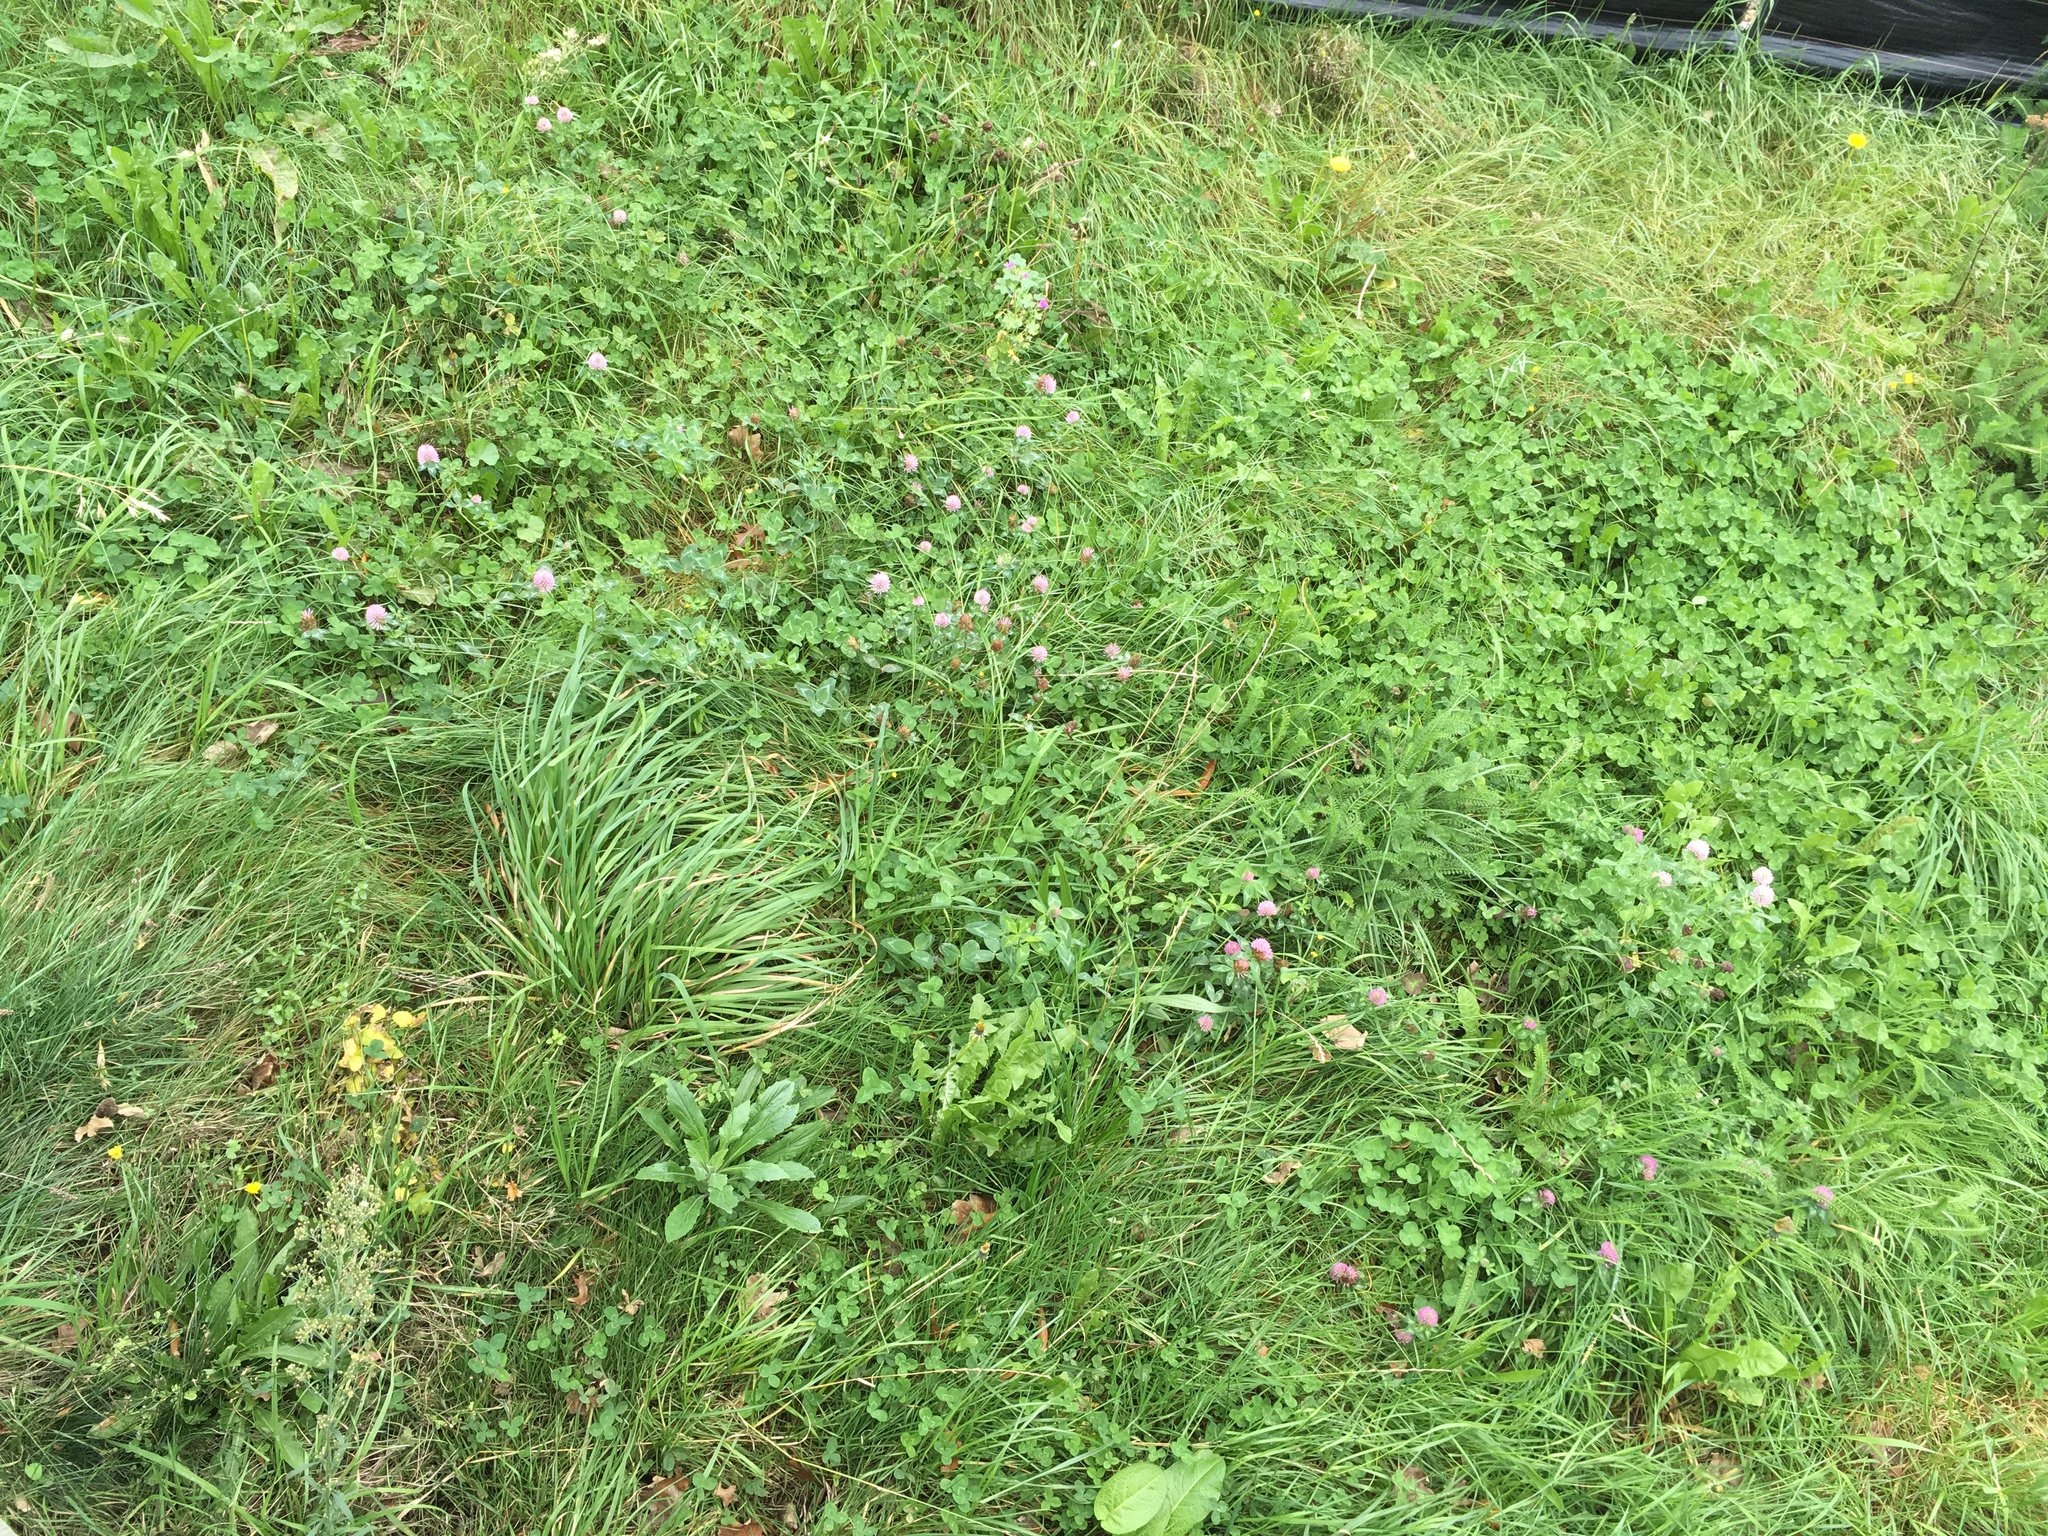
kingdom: Plantae
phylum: Tracheophyta
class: Magnoliopsida
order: Fabales
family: Fabaceae
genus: Trifolium
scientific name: Trifolium pratense
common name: Red clover
